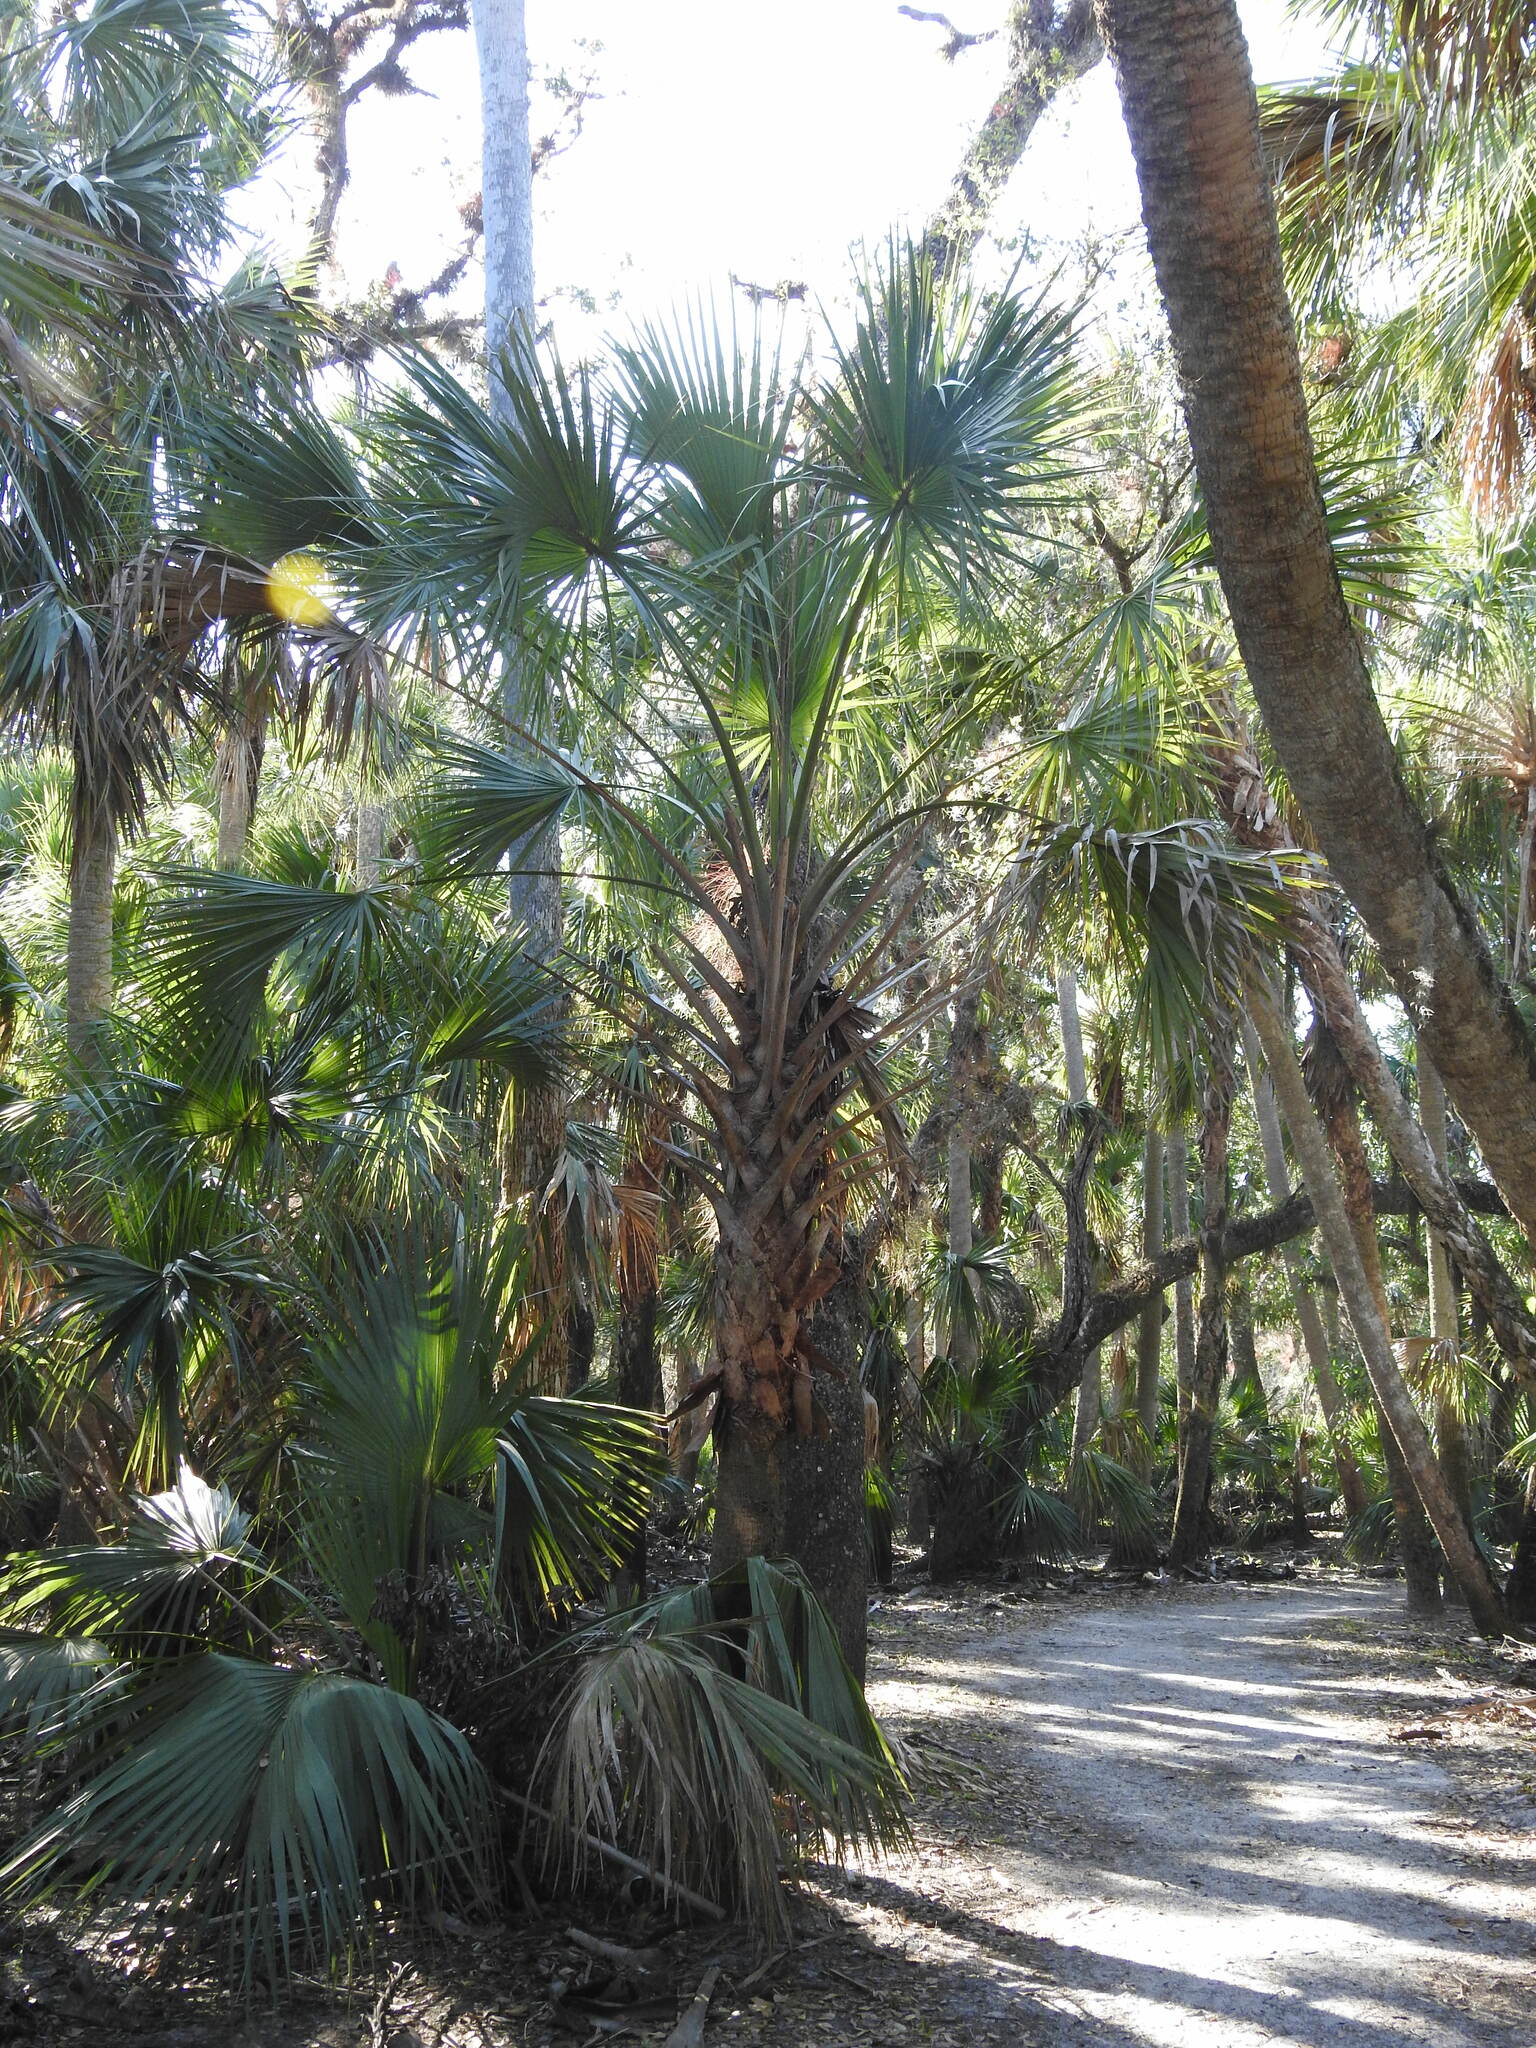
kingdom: Plantae
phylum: Tracheophyta
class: Liliopsida
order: Arecales
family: Arecaceae
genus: Sabal
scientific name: Sabal palmetto
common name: Blue palmetto
